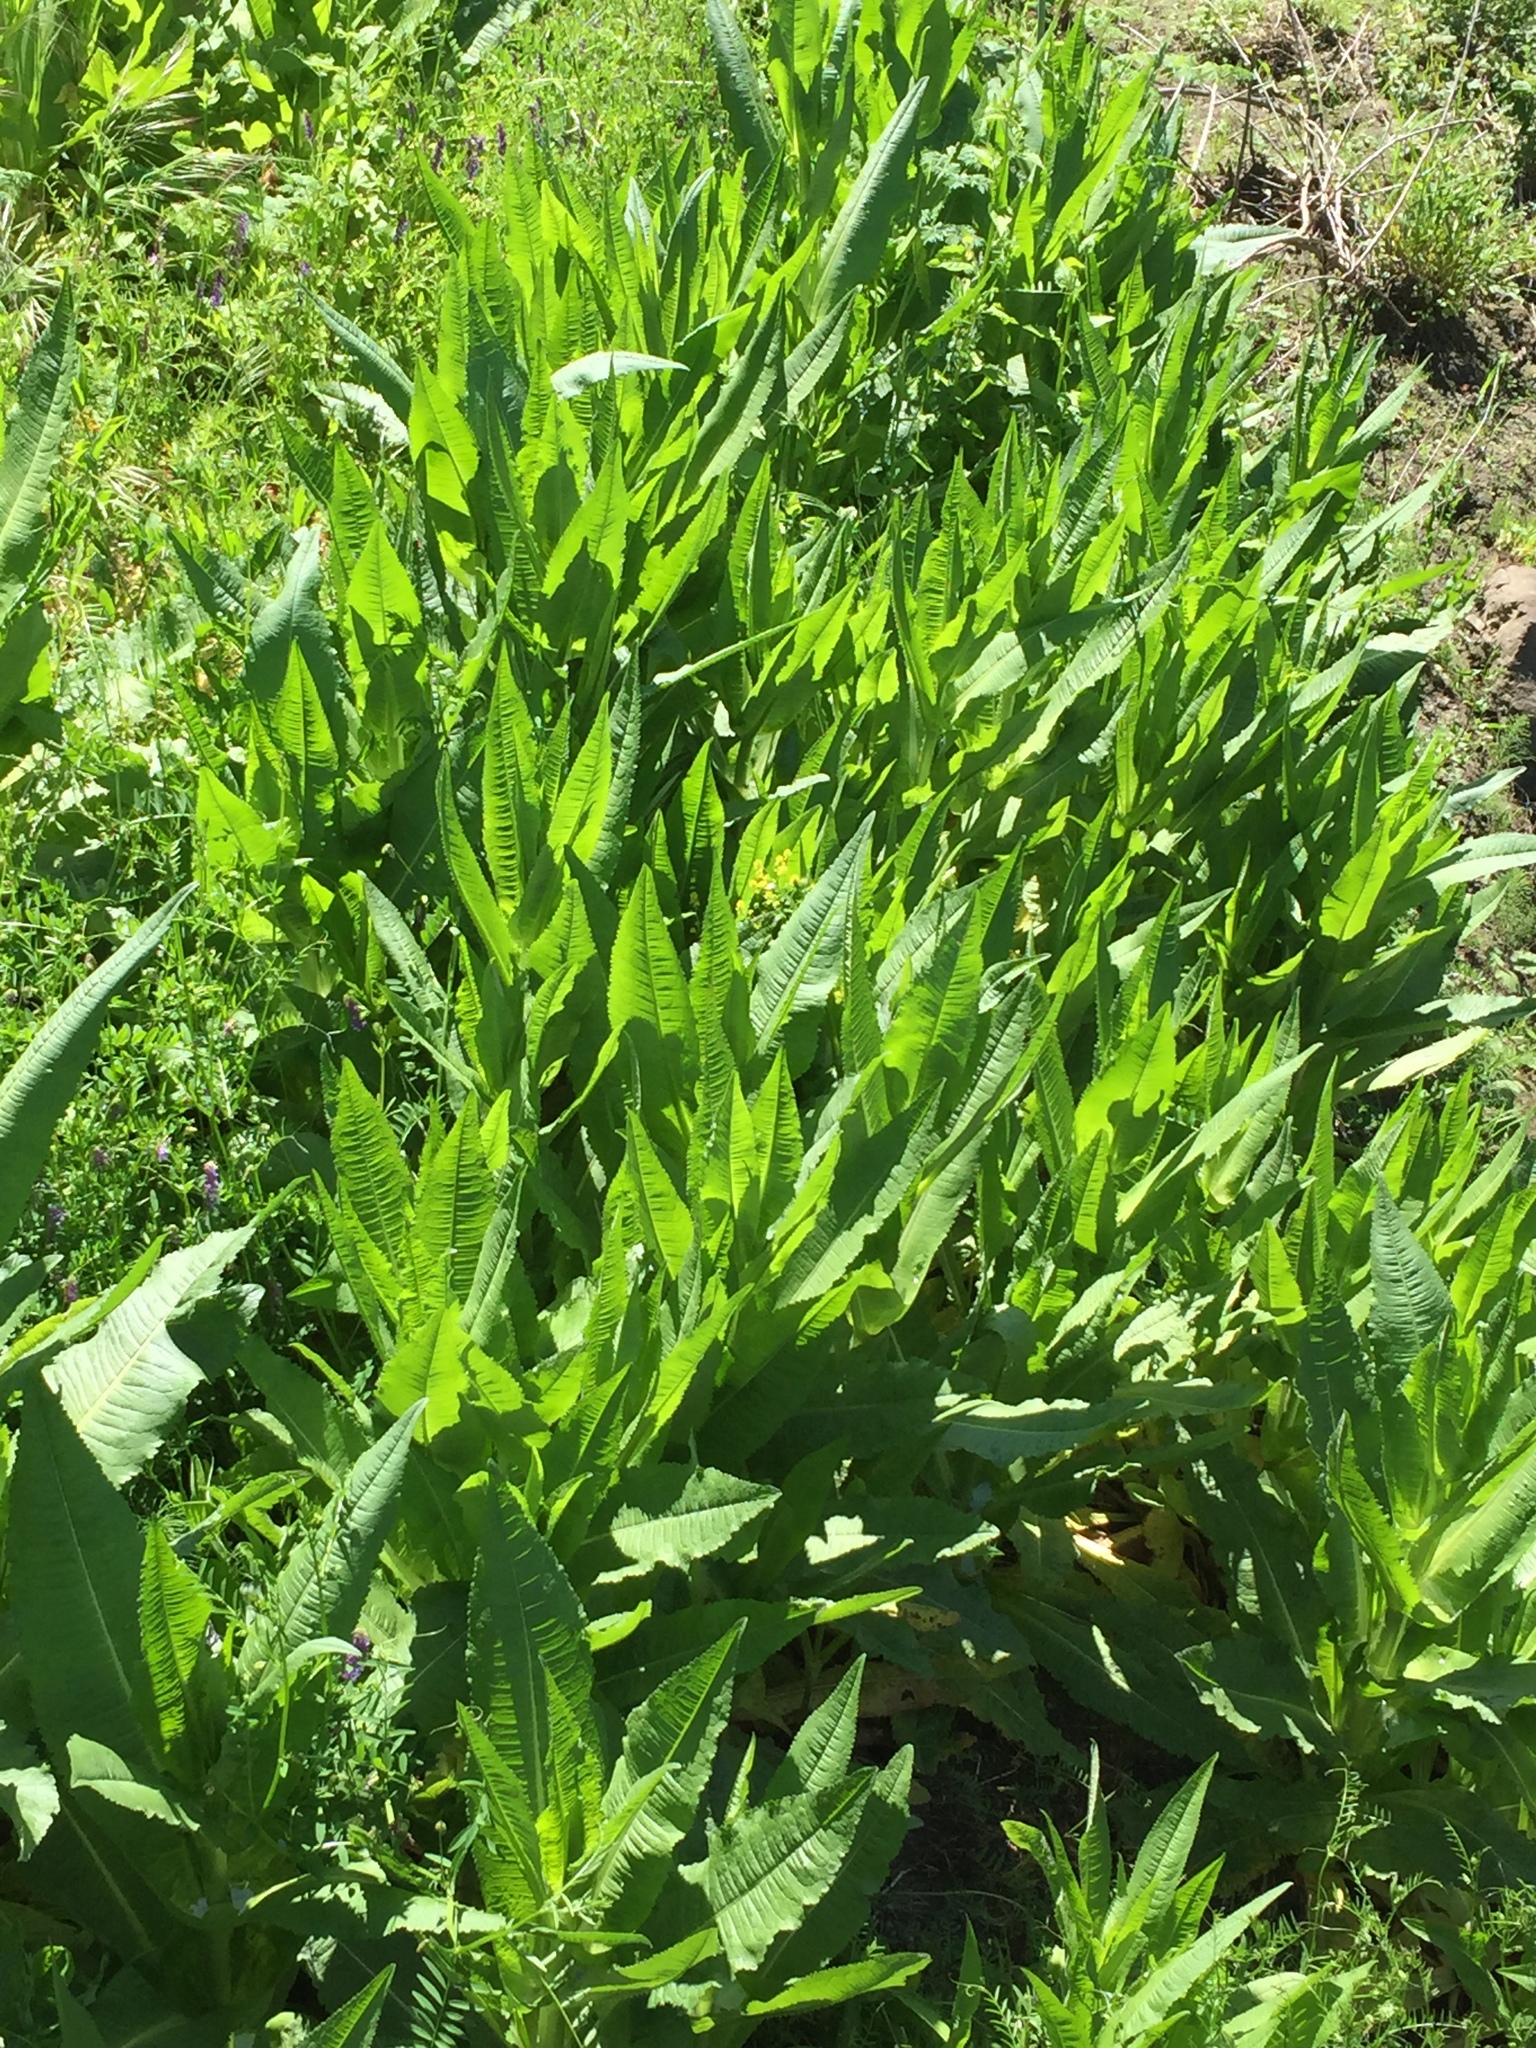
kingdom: Plantae
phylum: Tracheophyta
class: Magnoliopsida
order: Dipsacales
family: Caprifoliaceae
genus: Dipsacus
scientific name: Dipsacus fullonum
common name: Teasel
